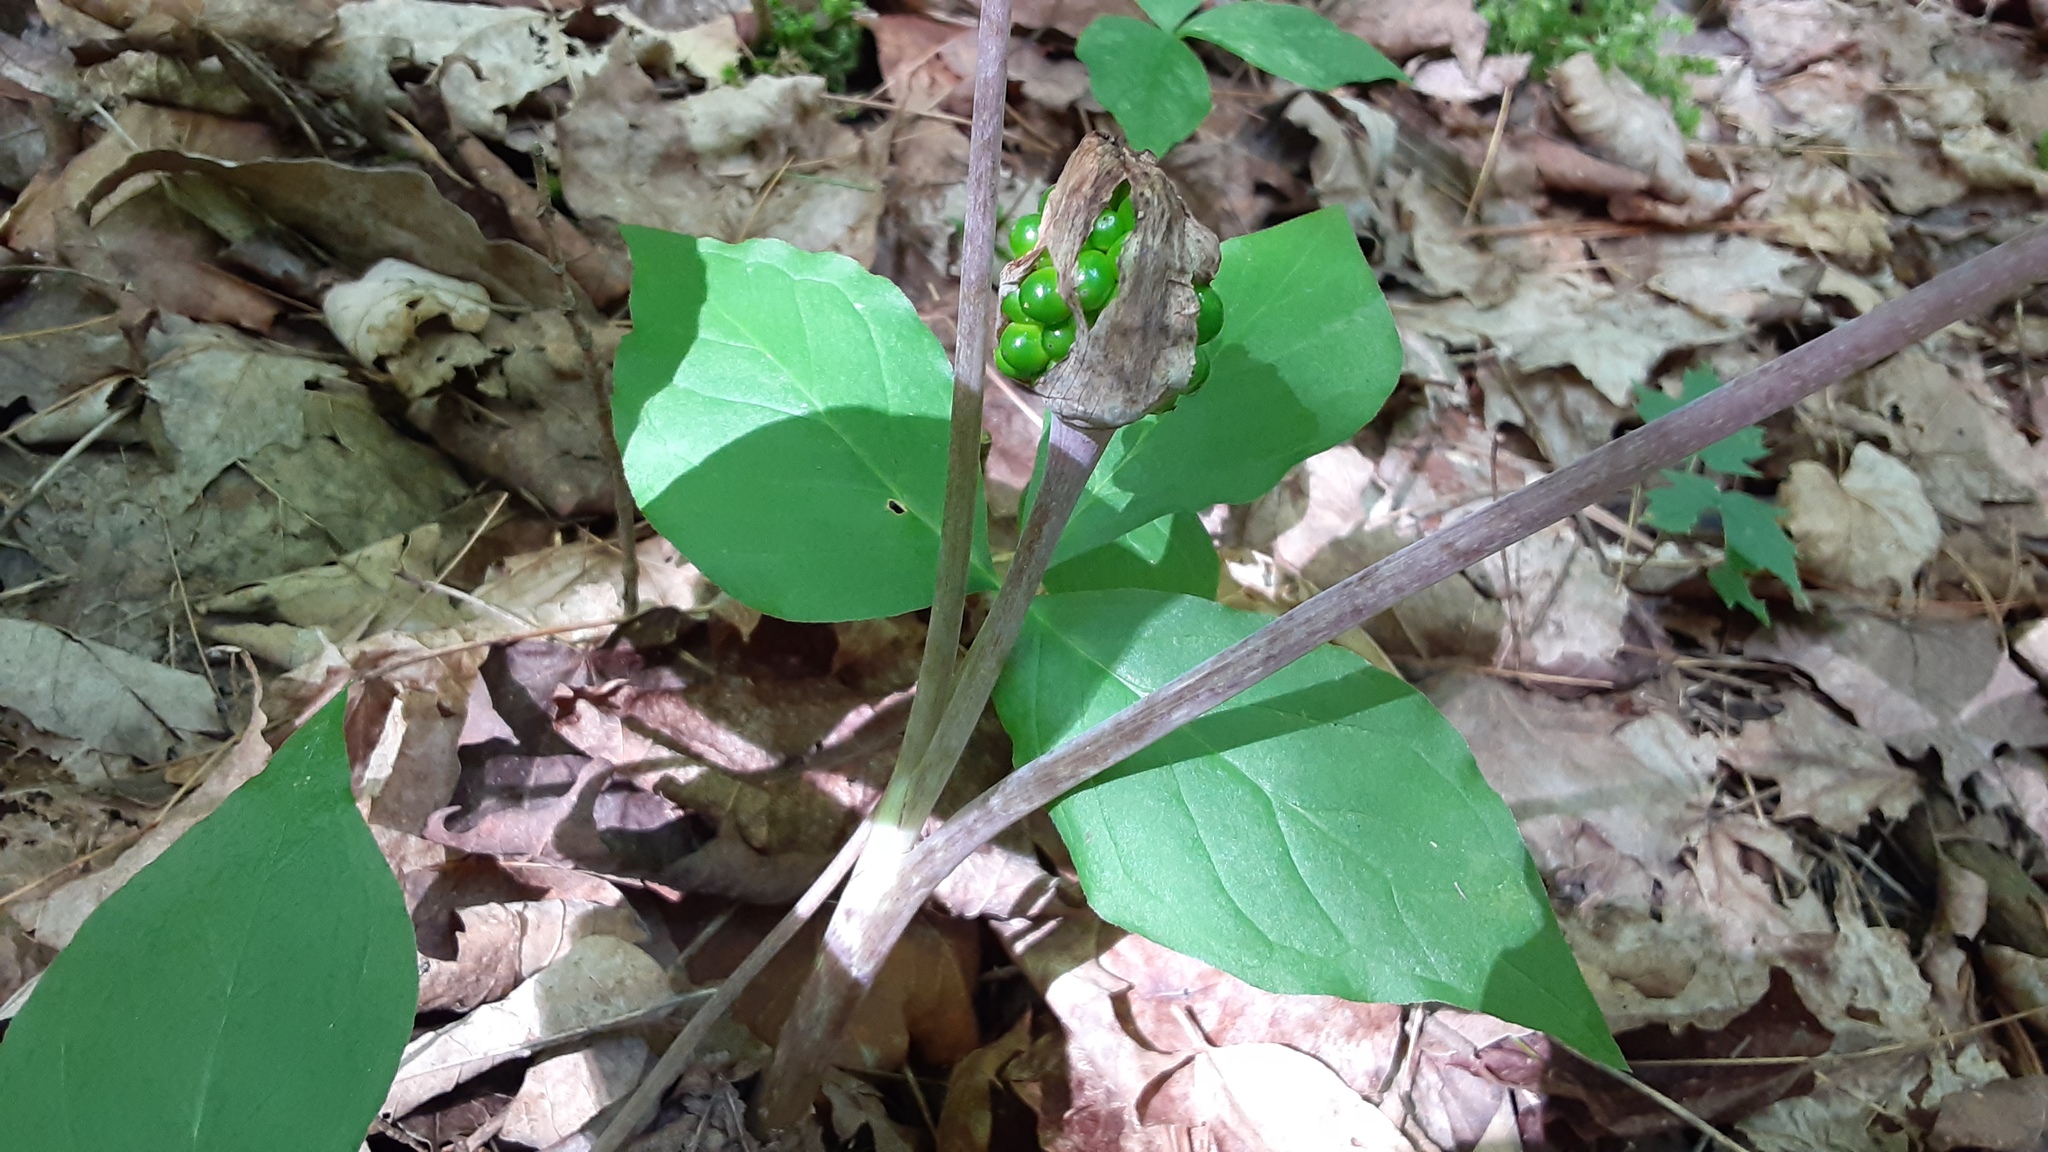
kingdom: Plantae
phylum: Tracheophyta
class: Liliopsida
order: Alismatales
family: Araceae
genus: Arisaema
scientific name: Arisaema triphyllum
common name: Jack-in-the-pulpit
